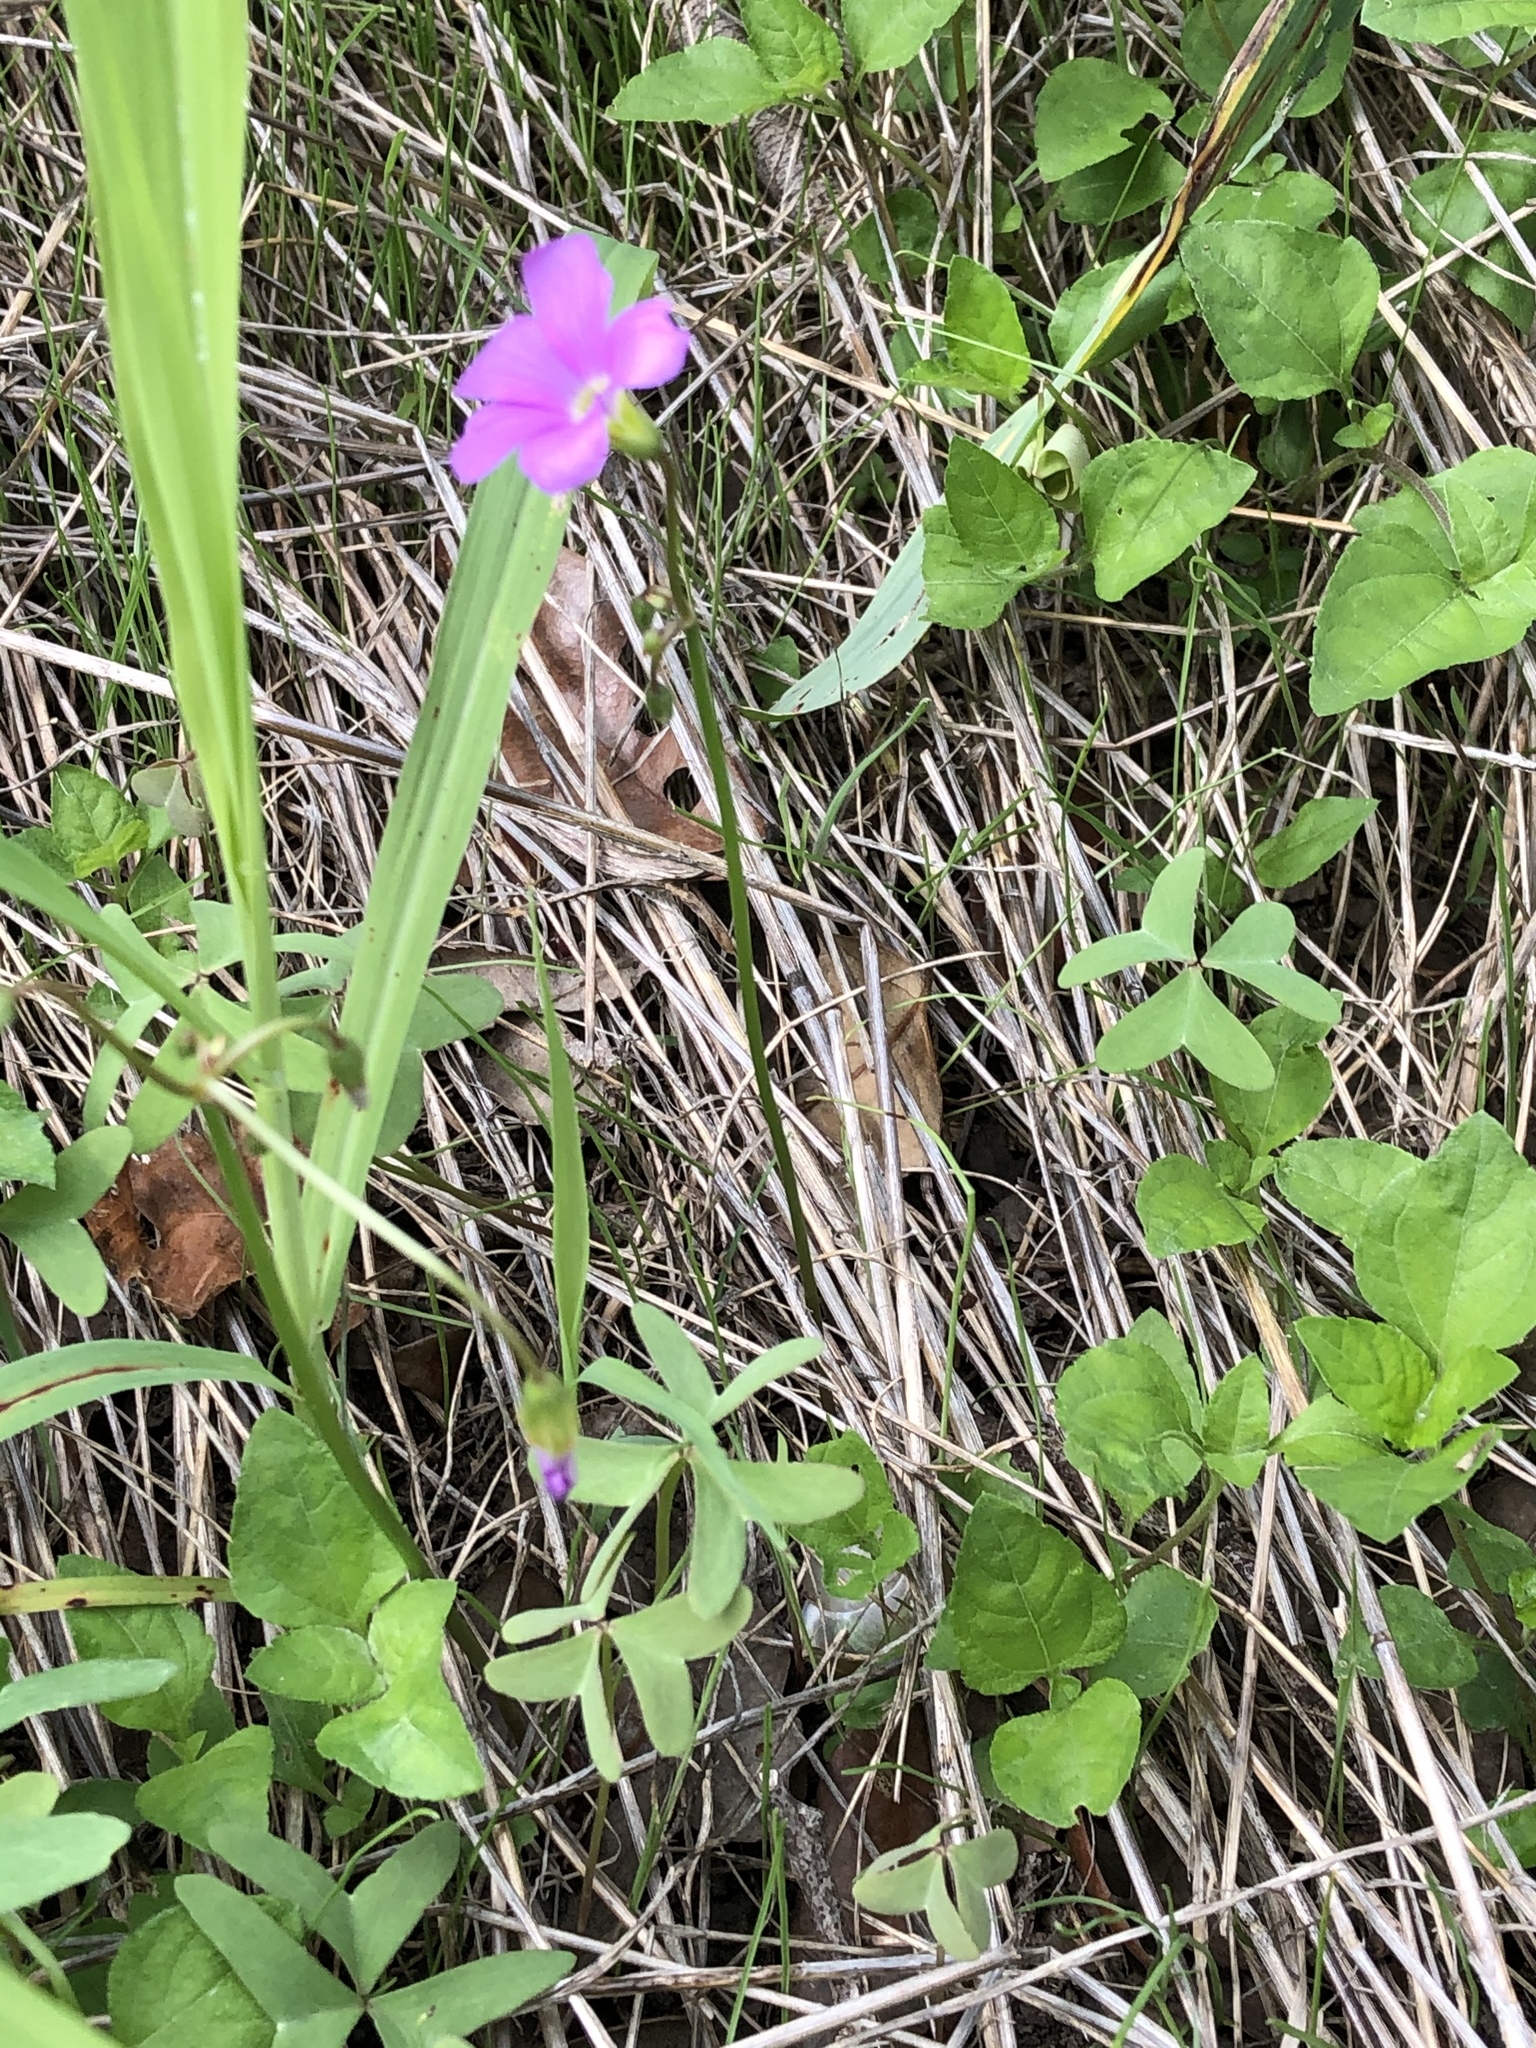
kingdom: Plantae
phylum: Tracheophyta
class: Magnoliopsida
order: Oxalidales
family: Oxalidaceae
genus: Oxalis
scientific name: Oxalis drummondii
